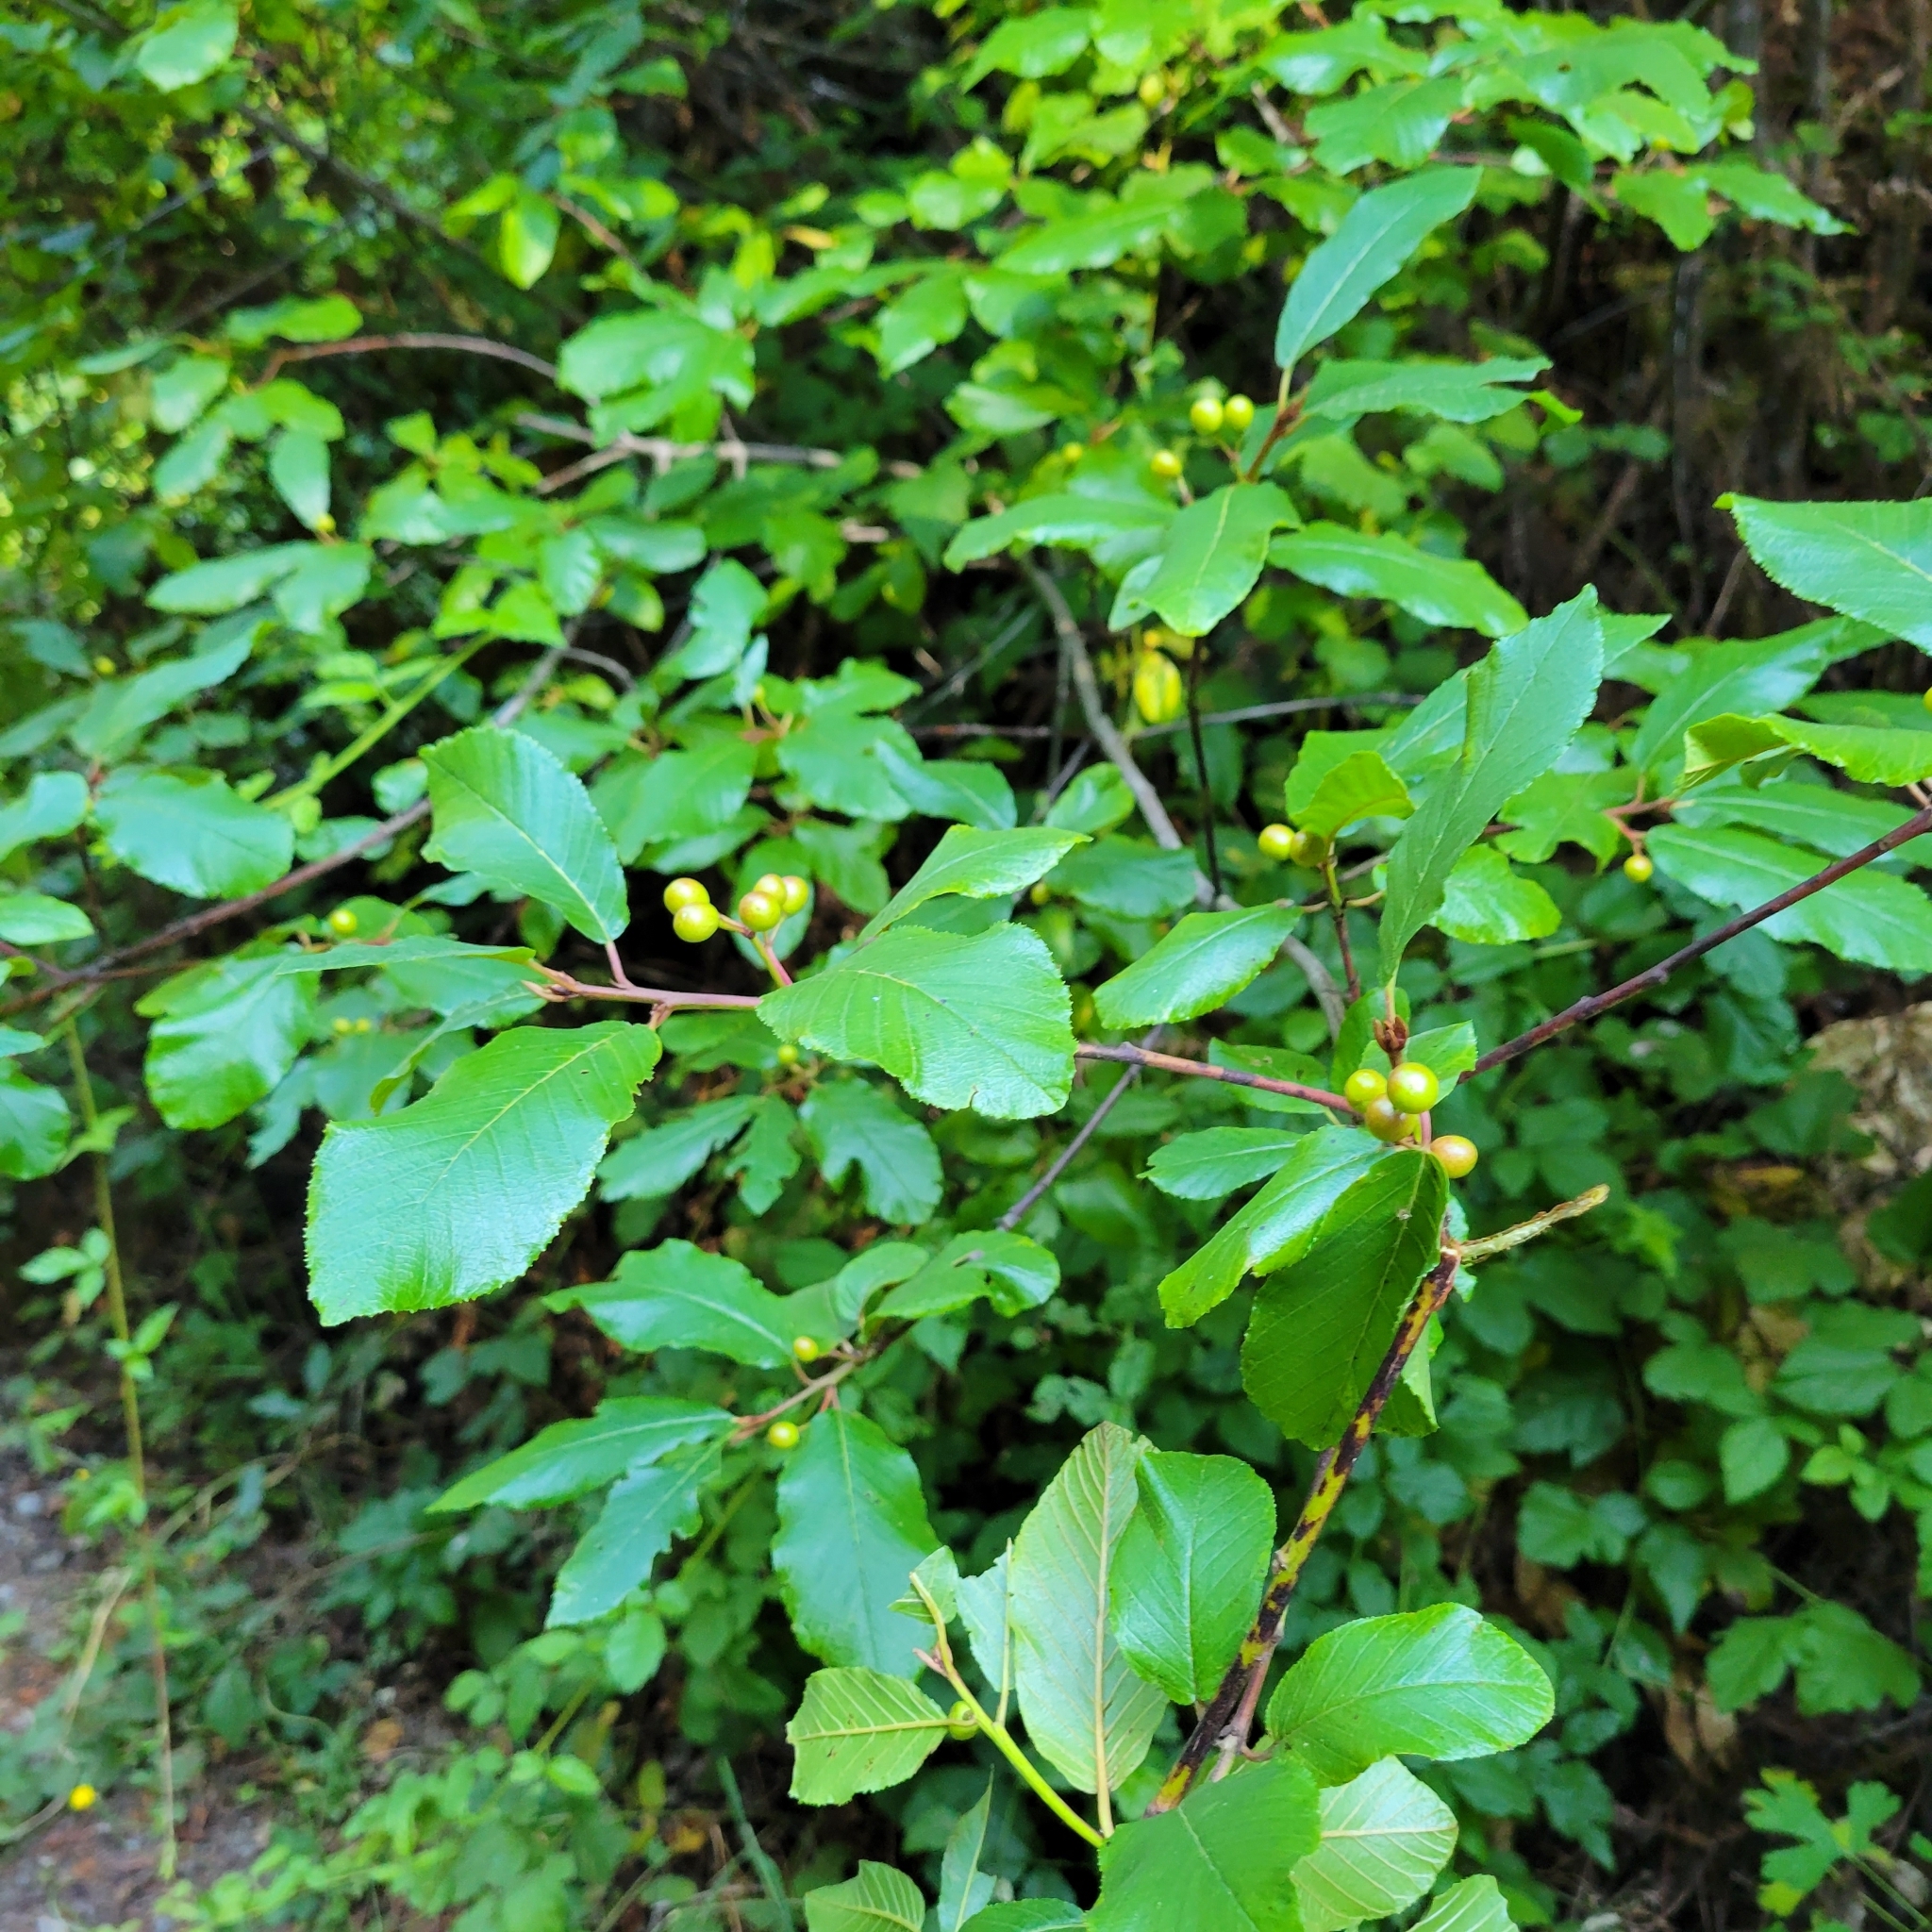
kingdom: Plantae
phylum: Tracheophyta
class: Magnoliopsida
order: Rosales
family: Rhamnaceae
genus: Frangula
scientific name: Frangula californica
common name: California buckthorn
